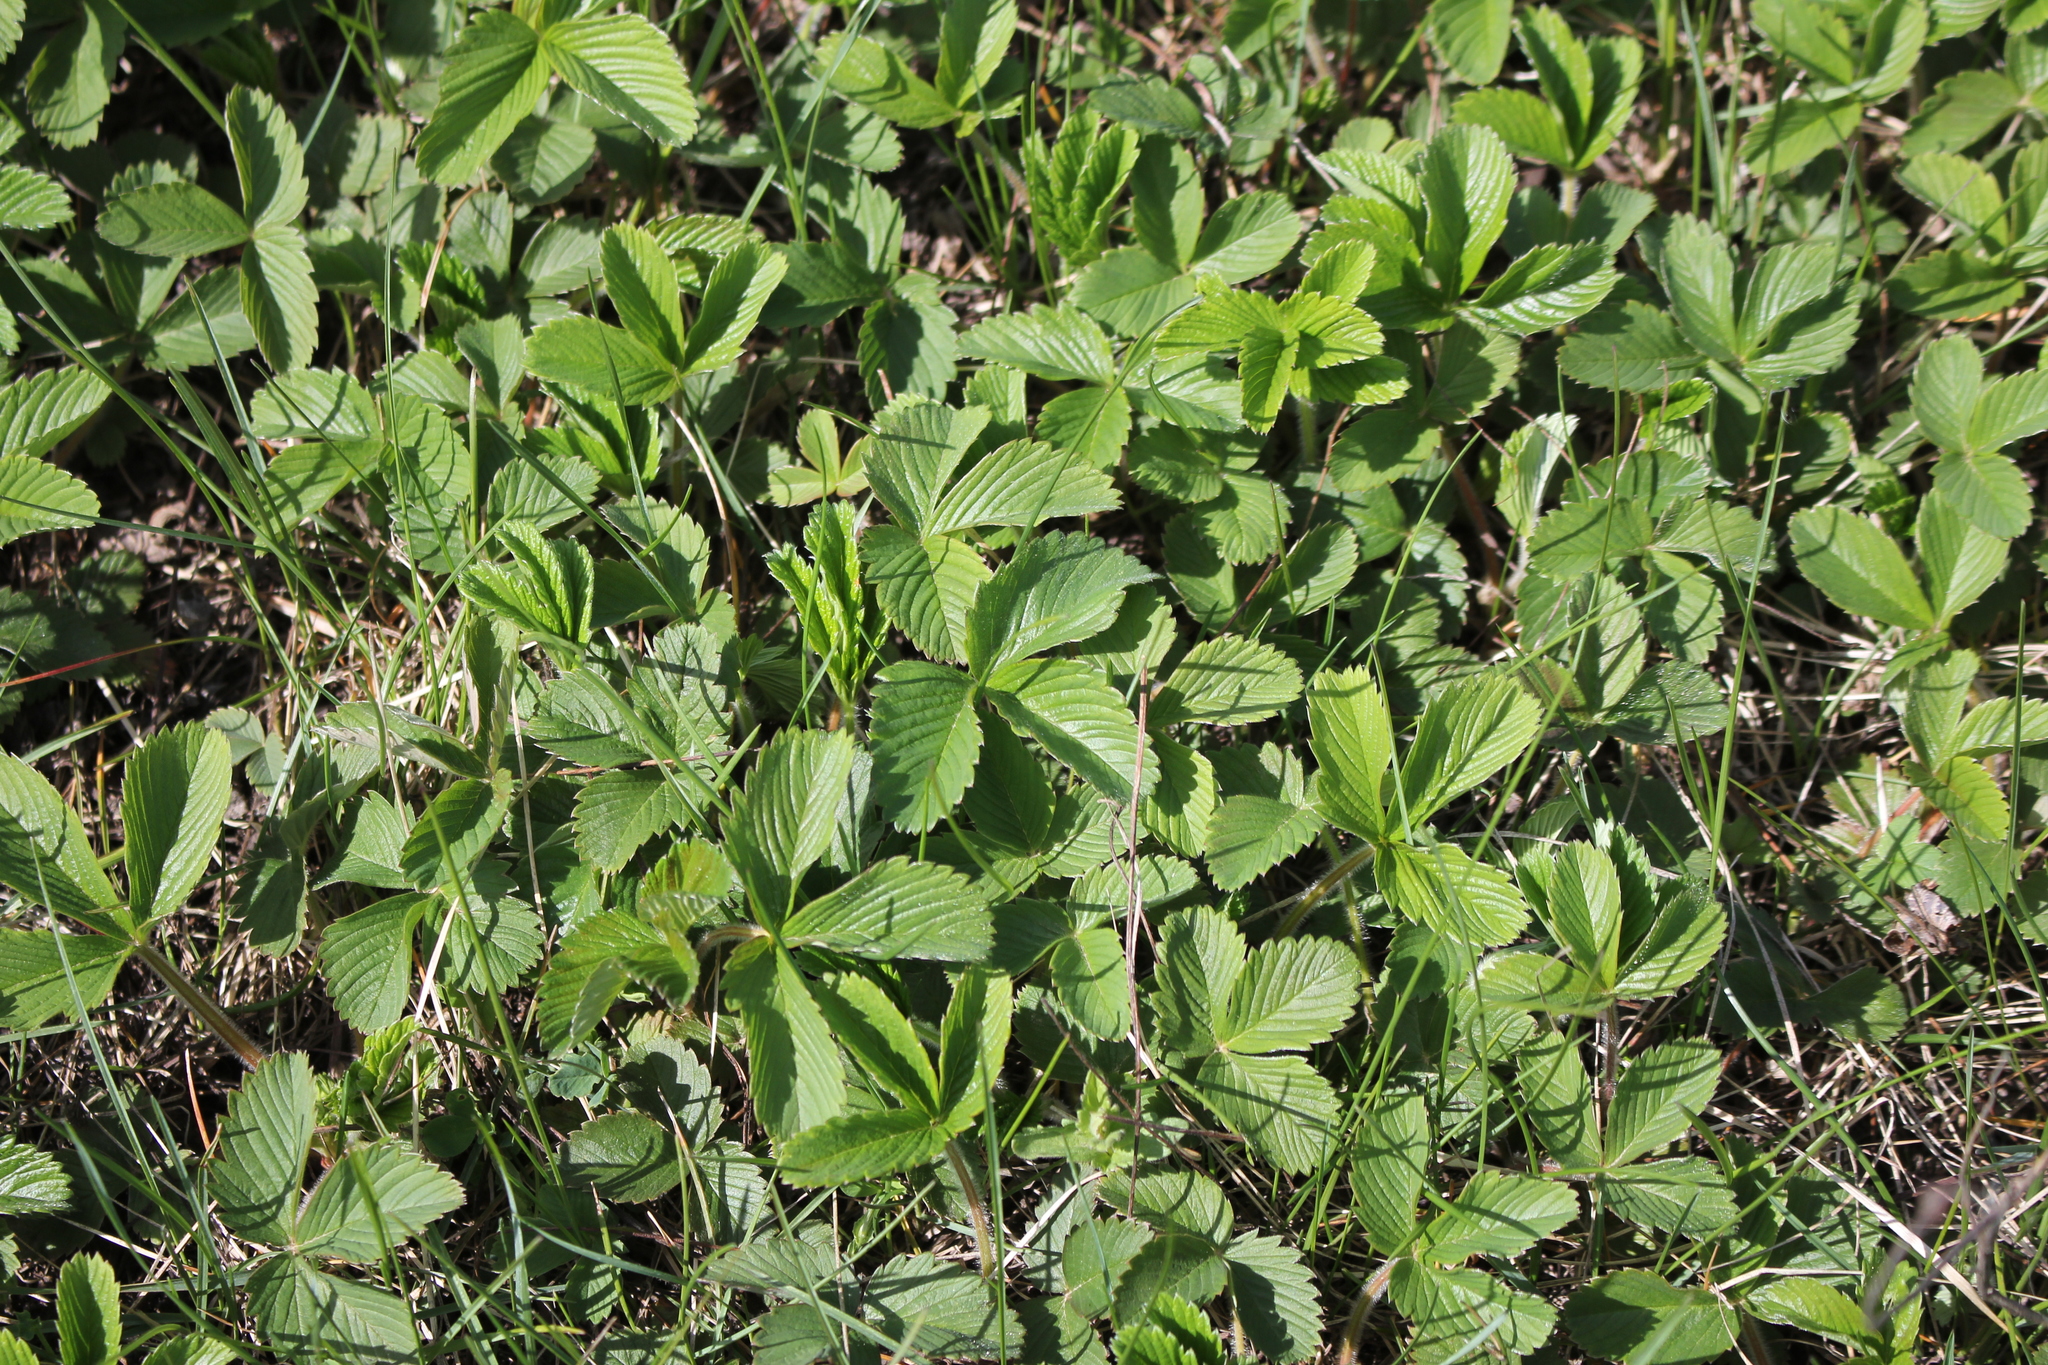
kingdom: Plantae
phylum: Tracheophyta
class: Magnoliopsida
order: Rosales
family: Rosaceae
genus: Fragaria
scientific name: Fragaria vesca
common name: Wild strawberry
